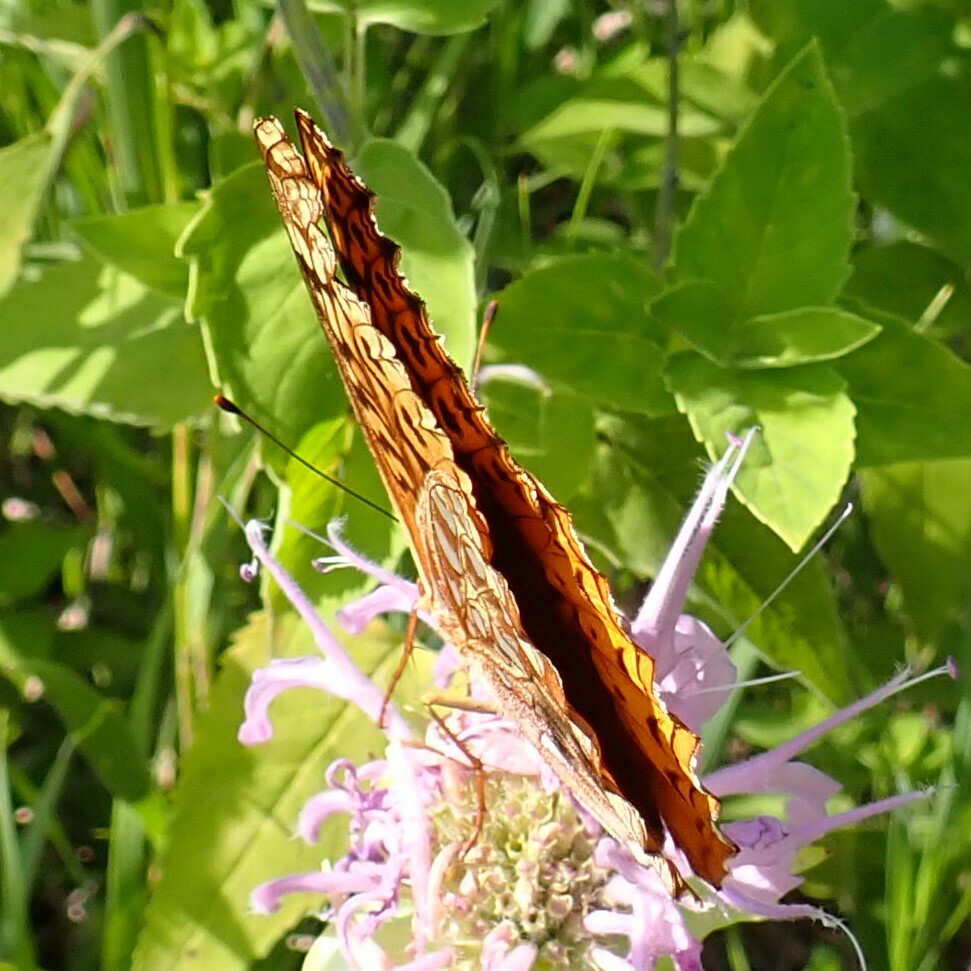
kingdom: Animalia
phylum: Arthropoda
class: Insecta
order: Lepidoptera
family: Nymphalidae
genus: Speyeria
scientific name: Speyeria cybele
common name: Great spangled fritillary
